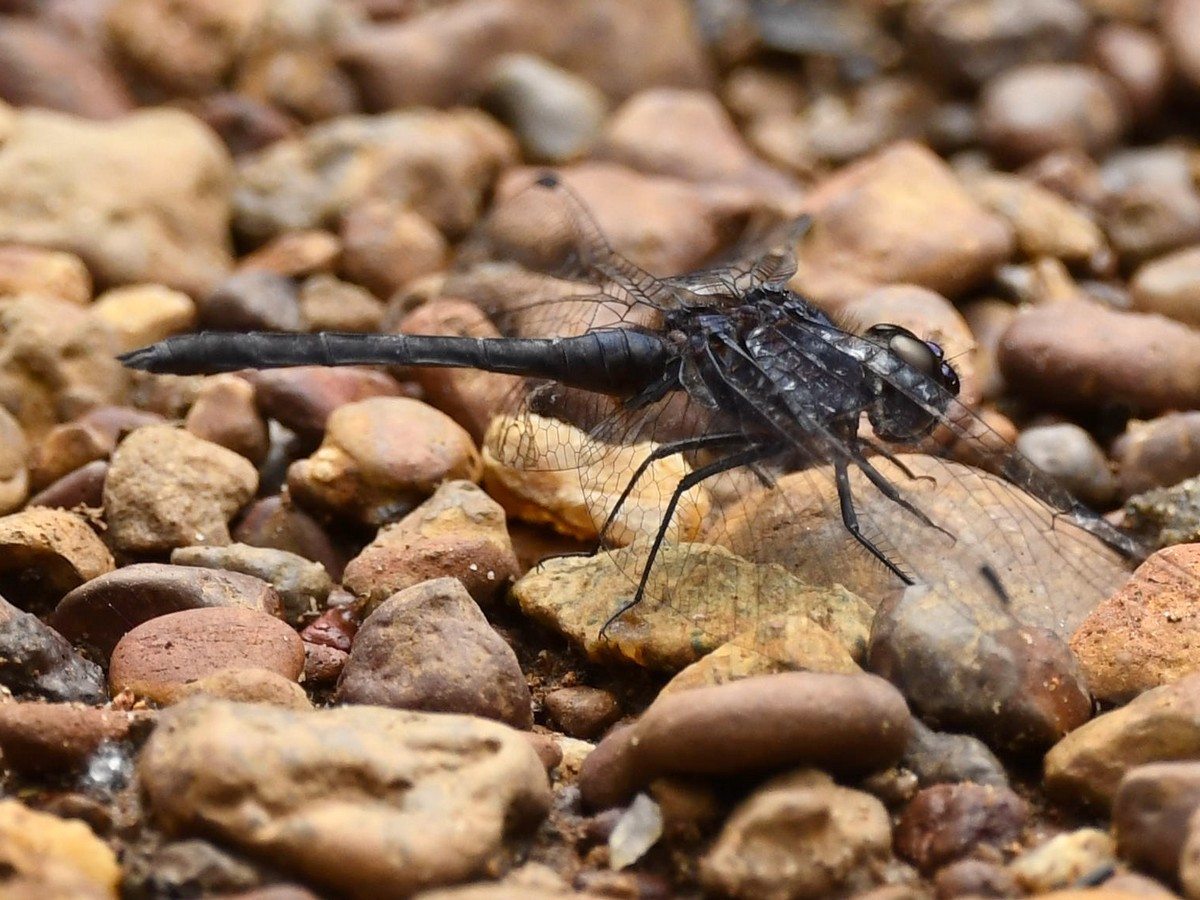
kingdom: Animalia
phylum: Arthropoda
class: Insecta
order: Odonata
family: Libellulidae
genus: Diplacodes
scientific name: Diplacodes lefebvrii
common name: Black percher
